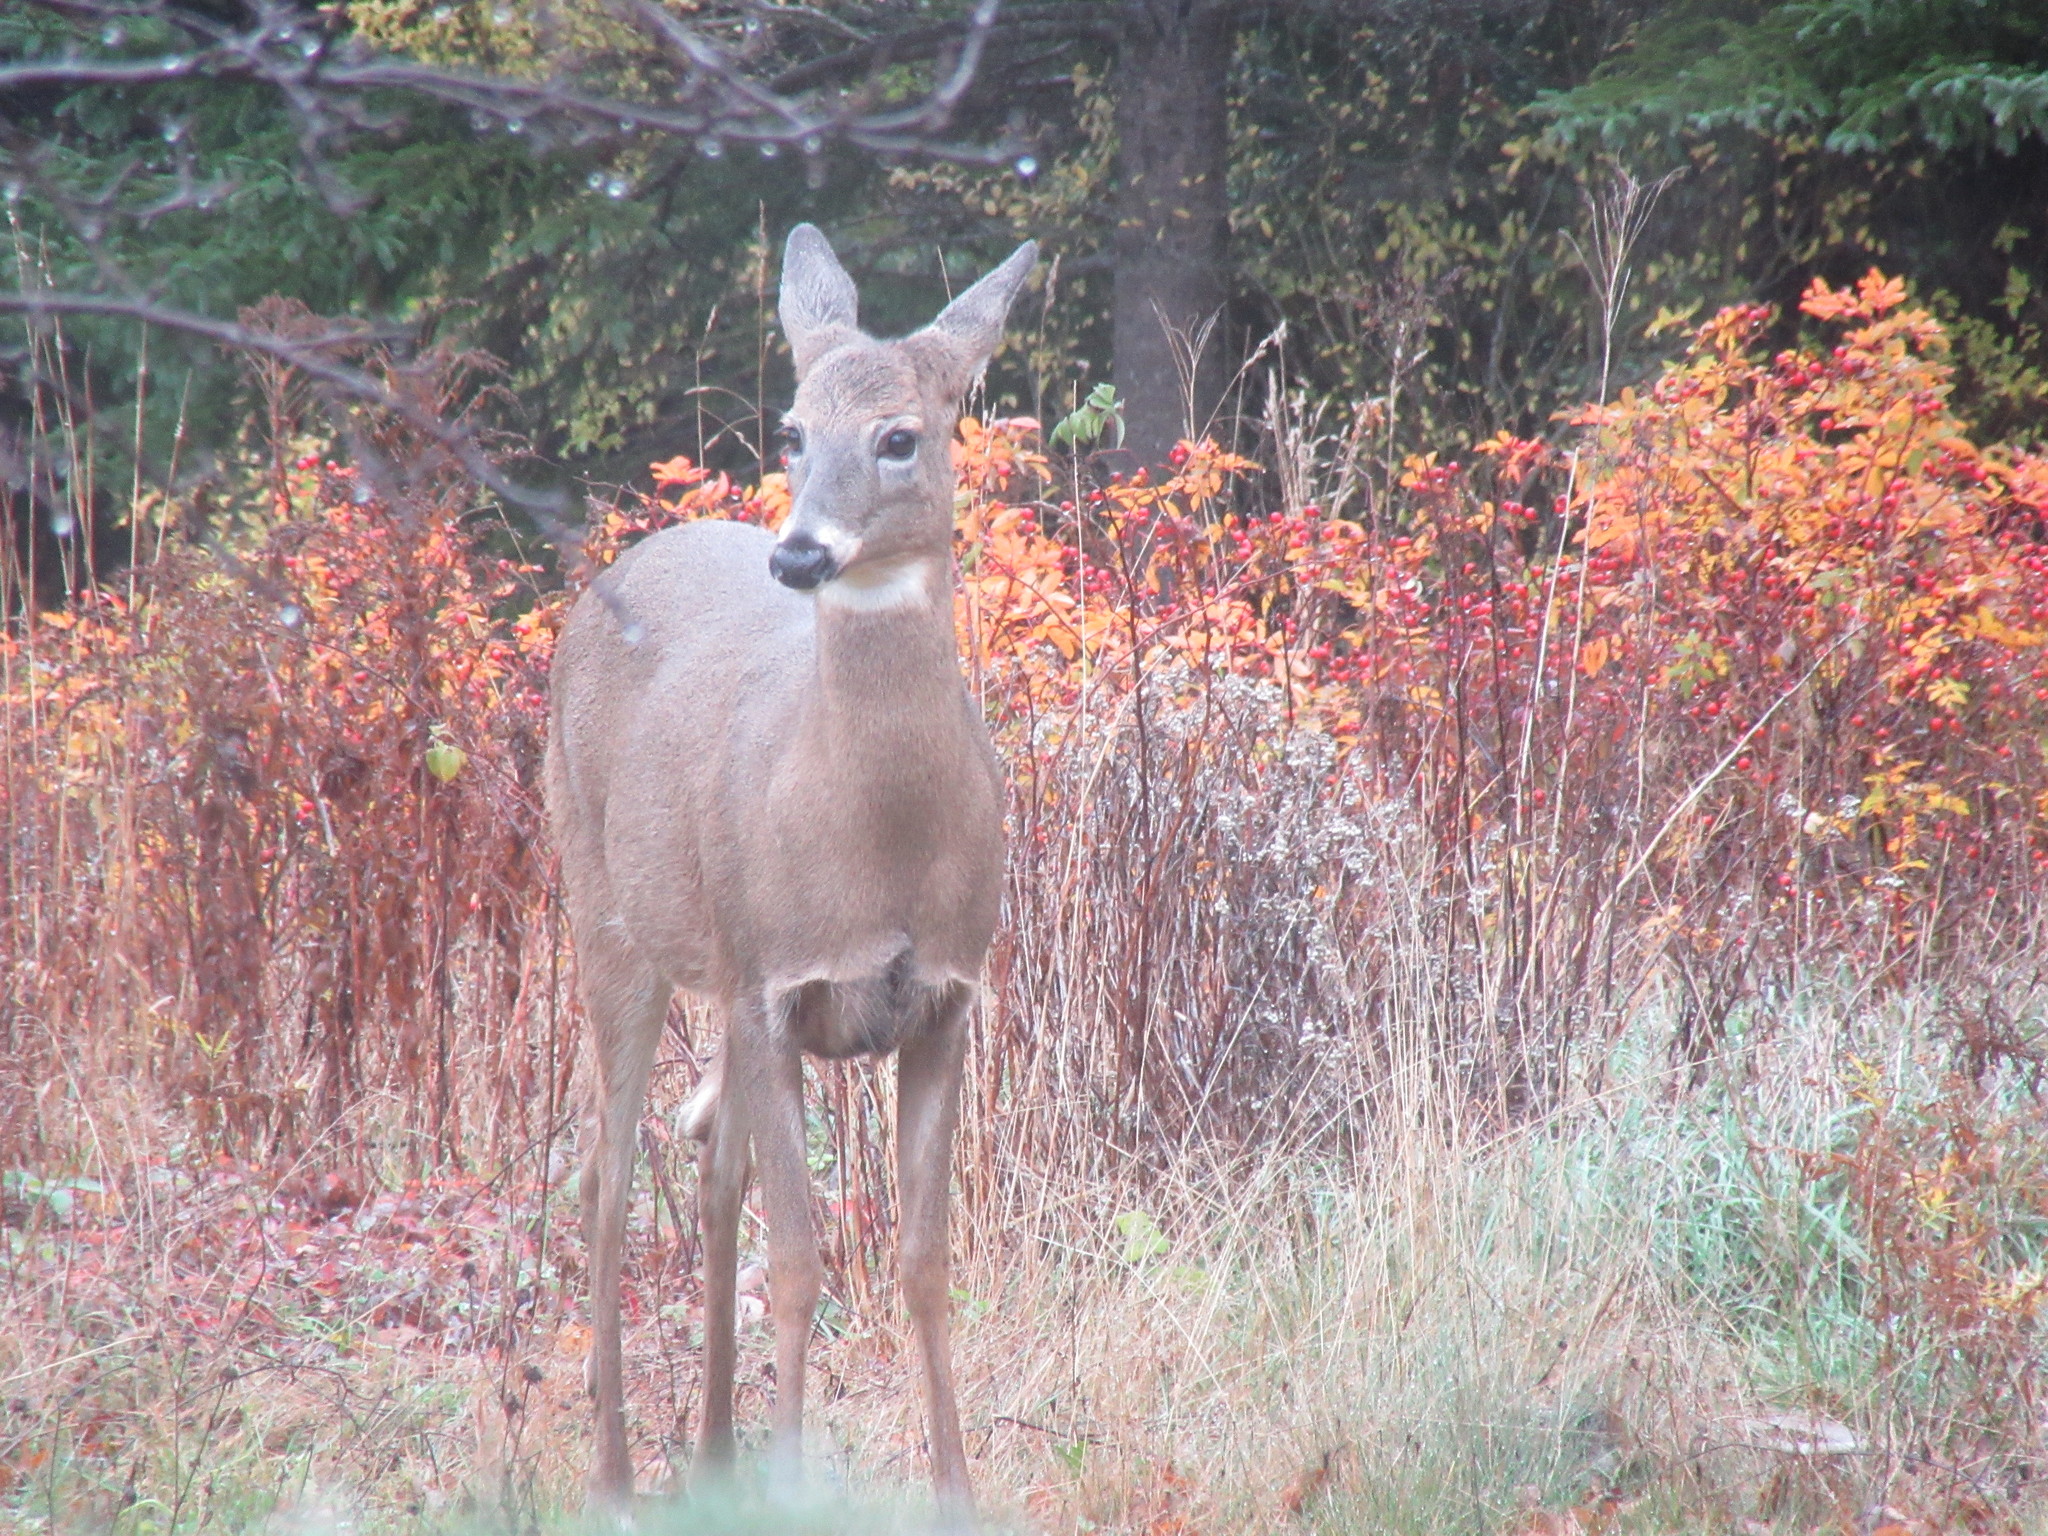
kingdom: Animalia
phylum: Chordata
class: Mammalia
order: Artiodactyla
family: Cervidae
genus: Odocoileus
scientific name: Odocoileus virginianus
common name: White-tailed deer
